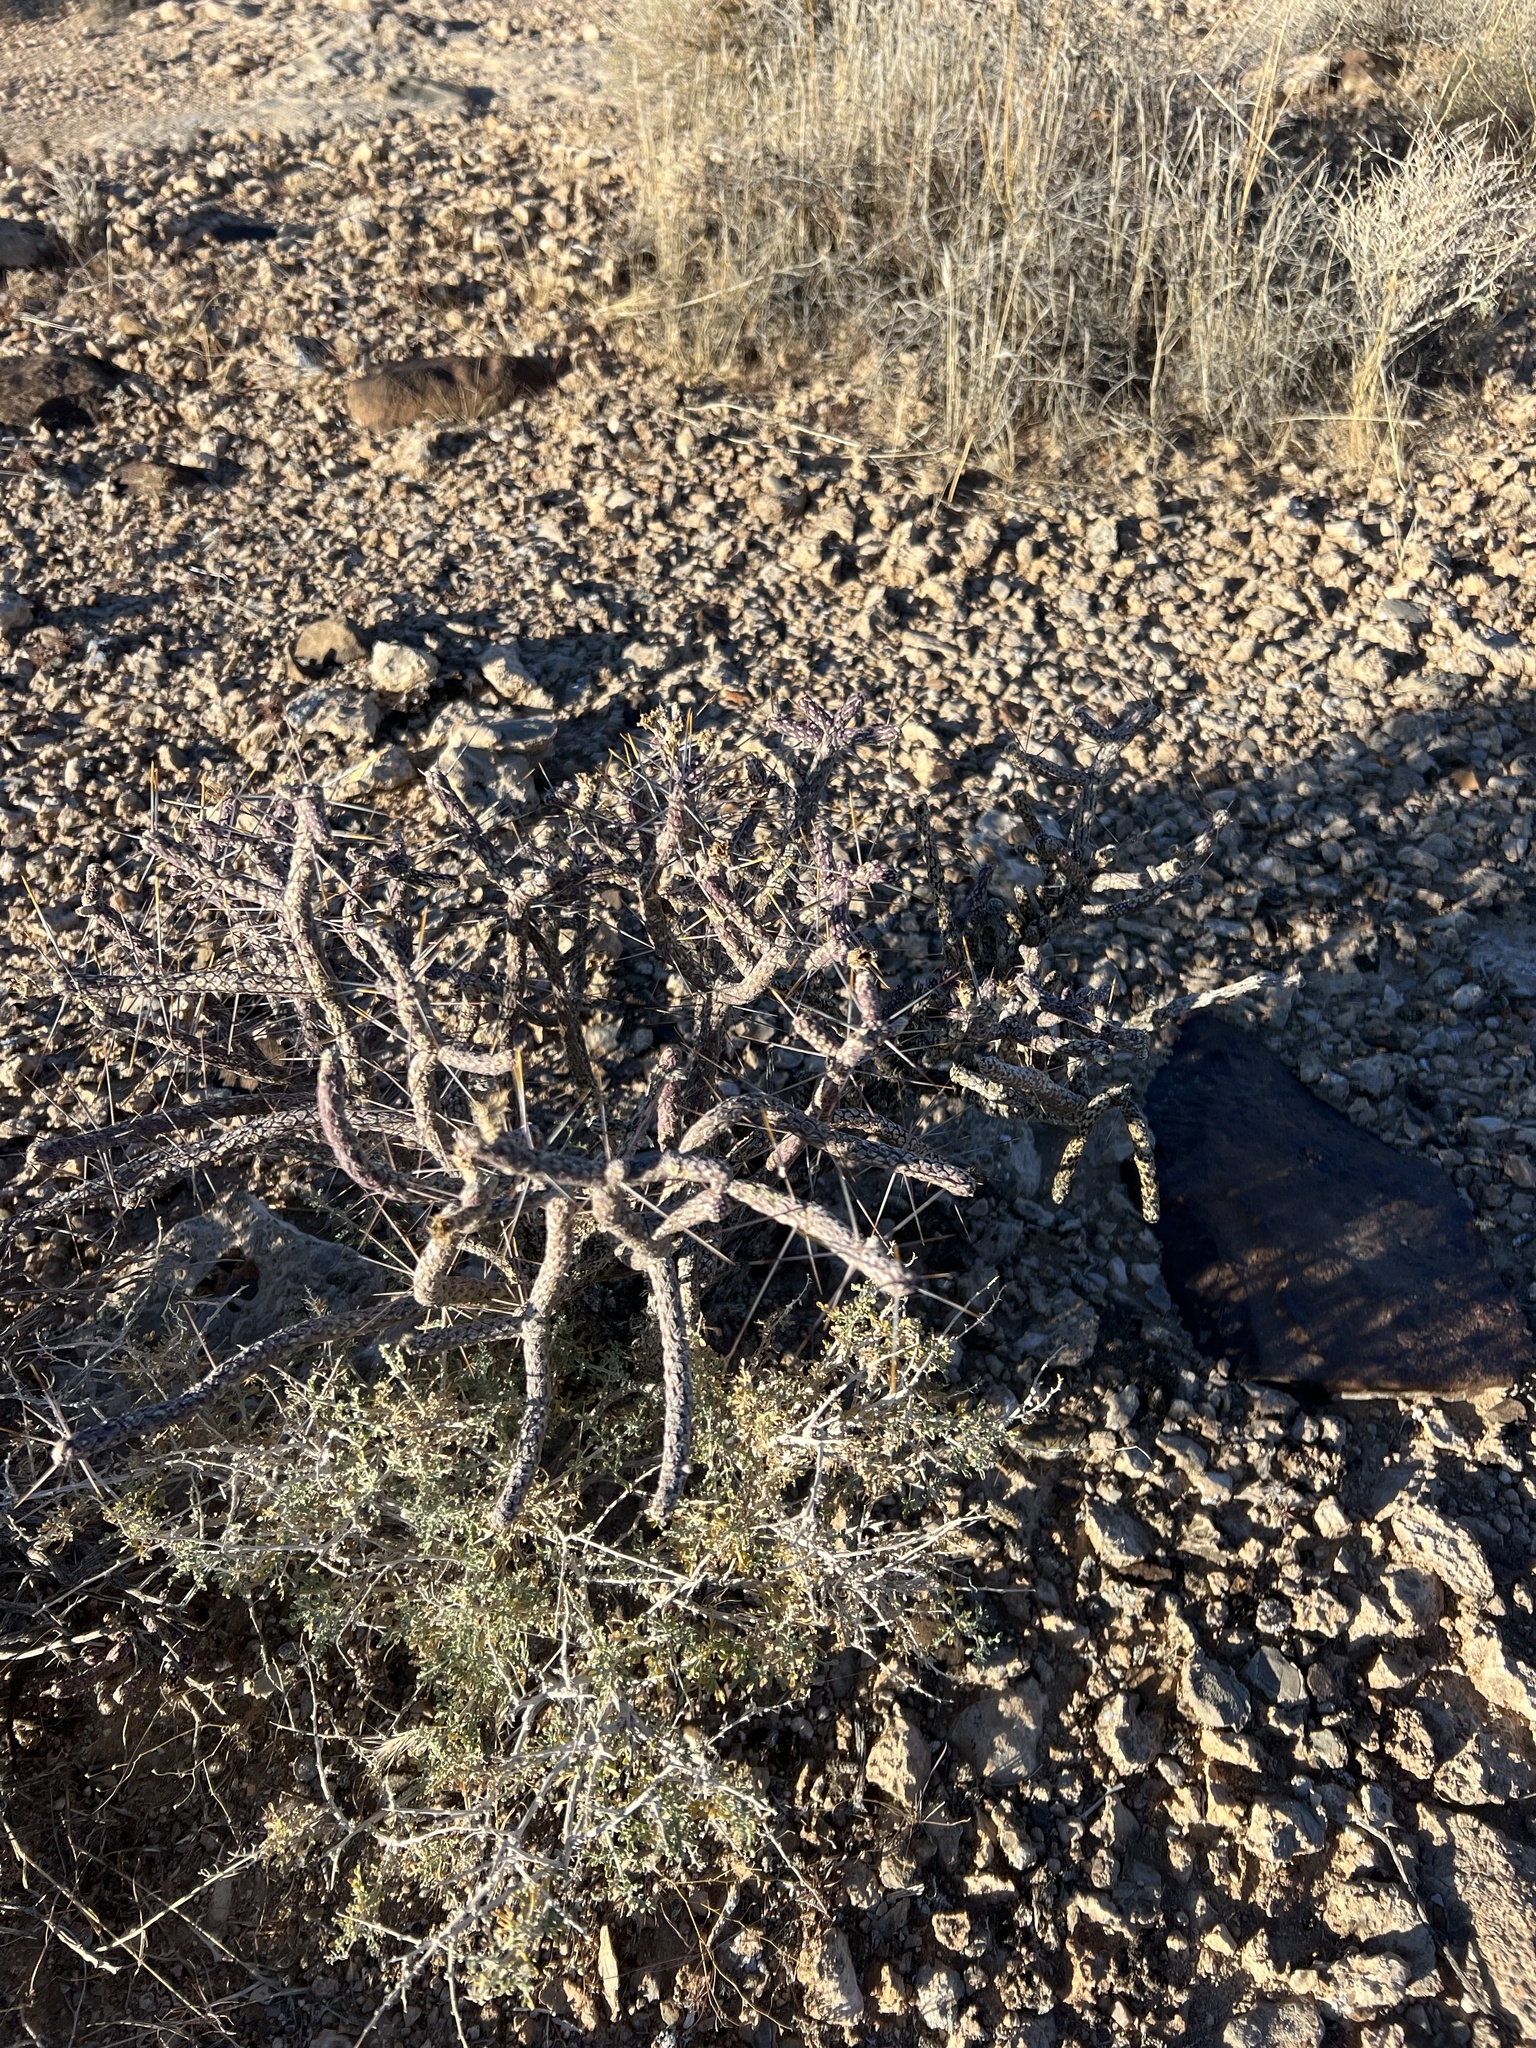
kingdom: Plantae
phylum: Tracheophyta
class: Magnoliopsida
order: Caryophyllales
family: Cactaceae
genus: Cylindropuntia
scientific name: Cylindropuntia ramosissima
